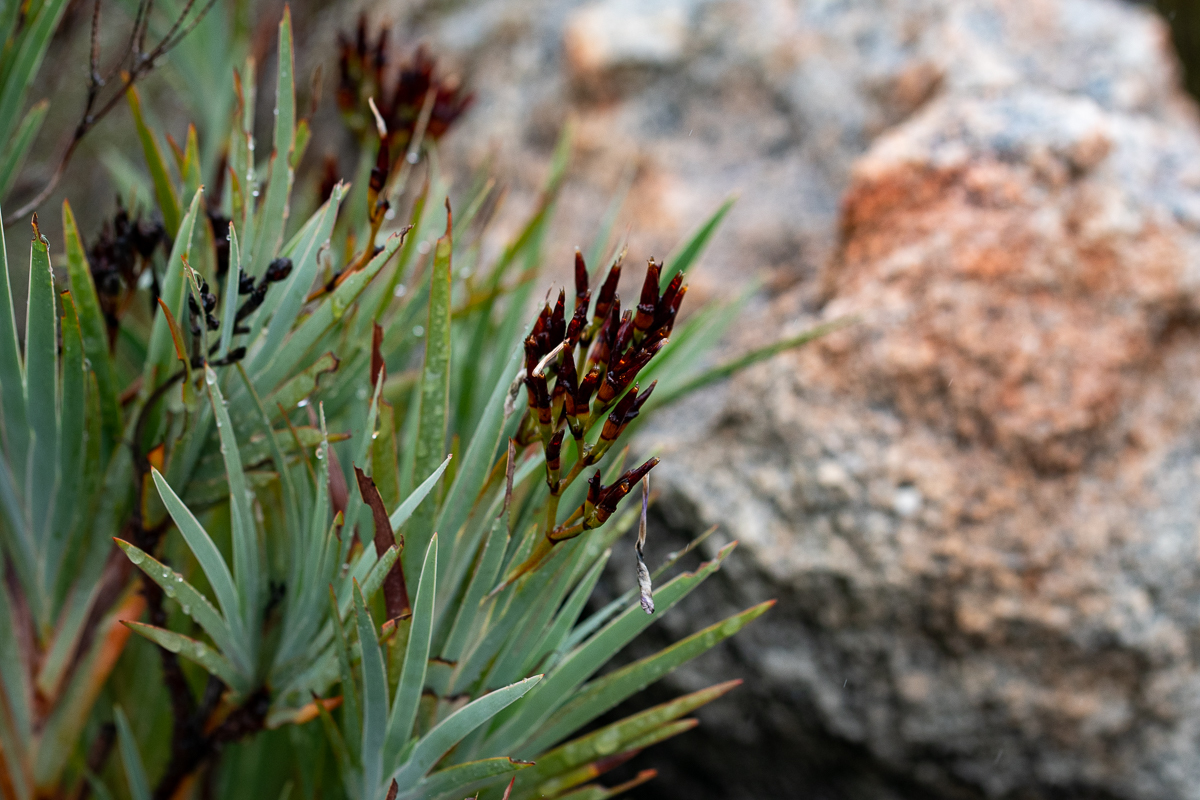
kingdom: Plantae
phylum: Tracheophyta
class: Liliopsida
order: Asparagales
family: Iridaceae
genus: Nivenia
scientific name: Nivenia stokoei
